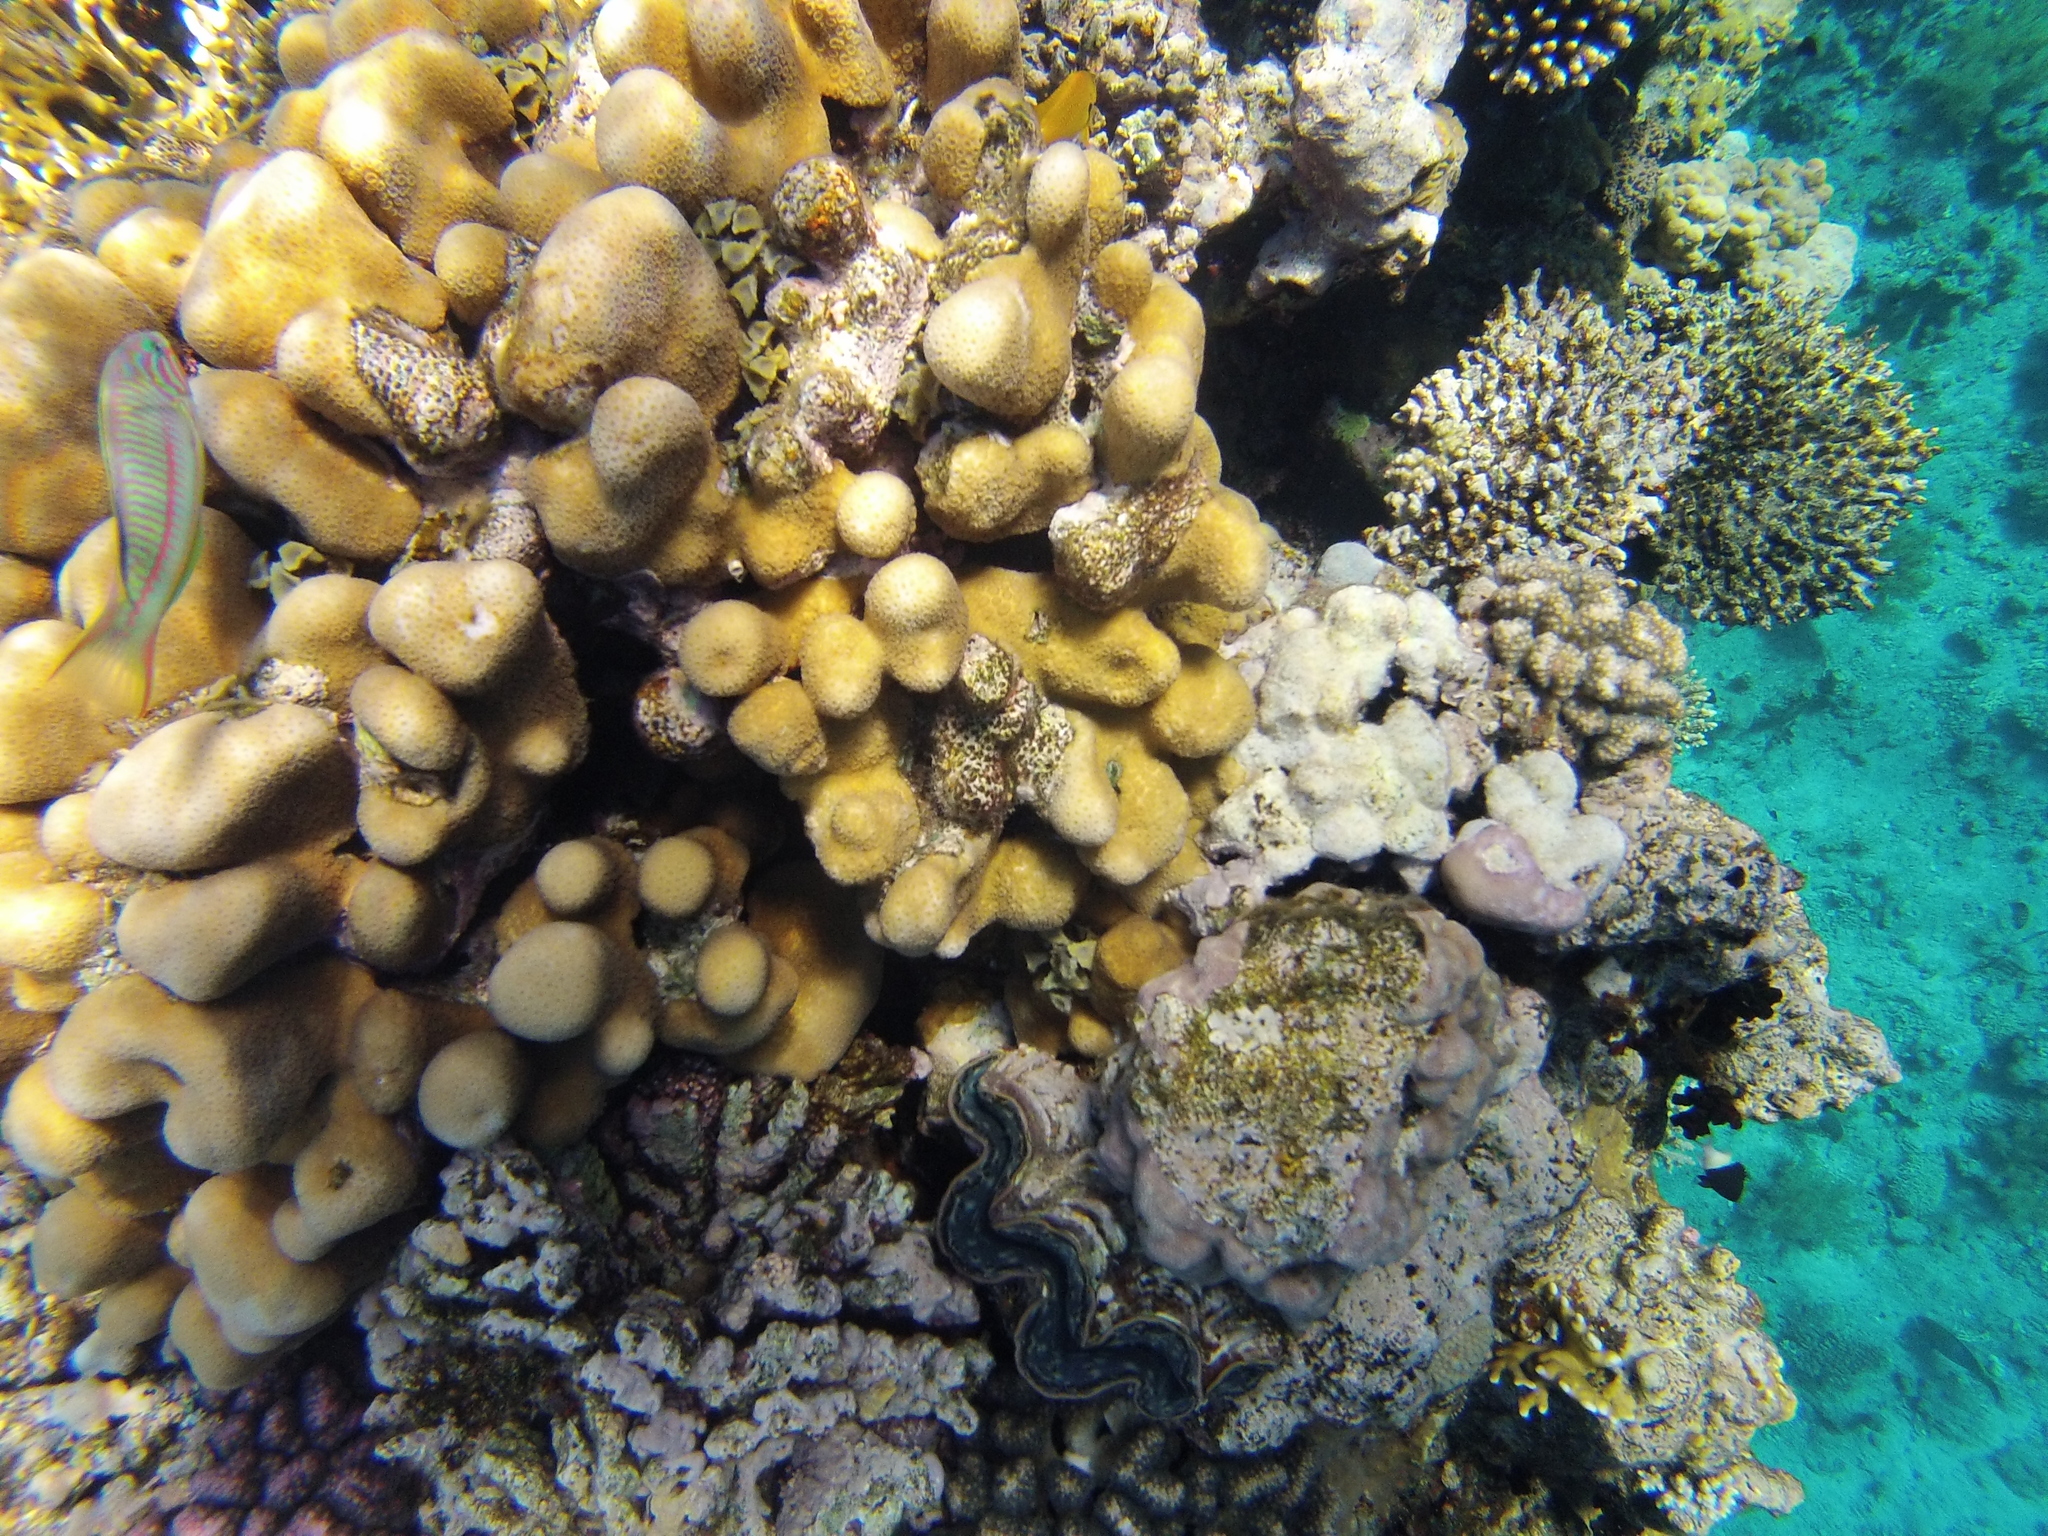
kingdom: Animalia
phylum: Chordata
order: Perciformes
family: Labridae
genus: Thalassoma
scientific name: Thalassoma rueppellii
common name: Klunzinger's wrasse
